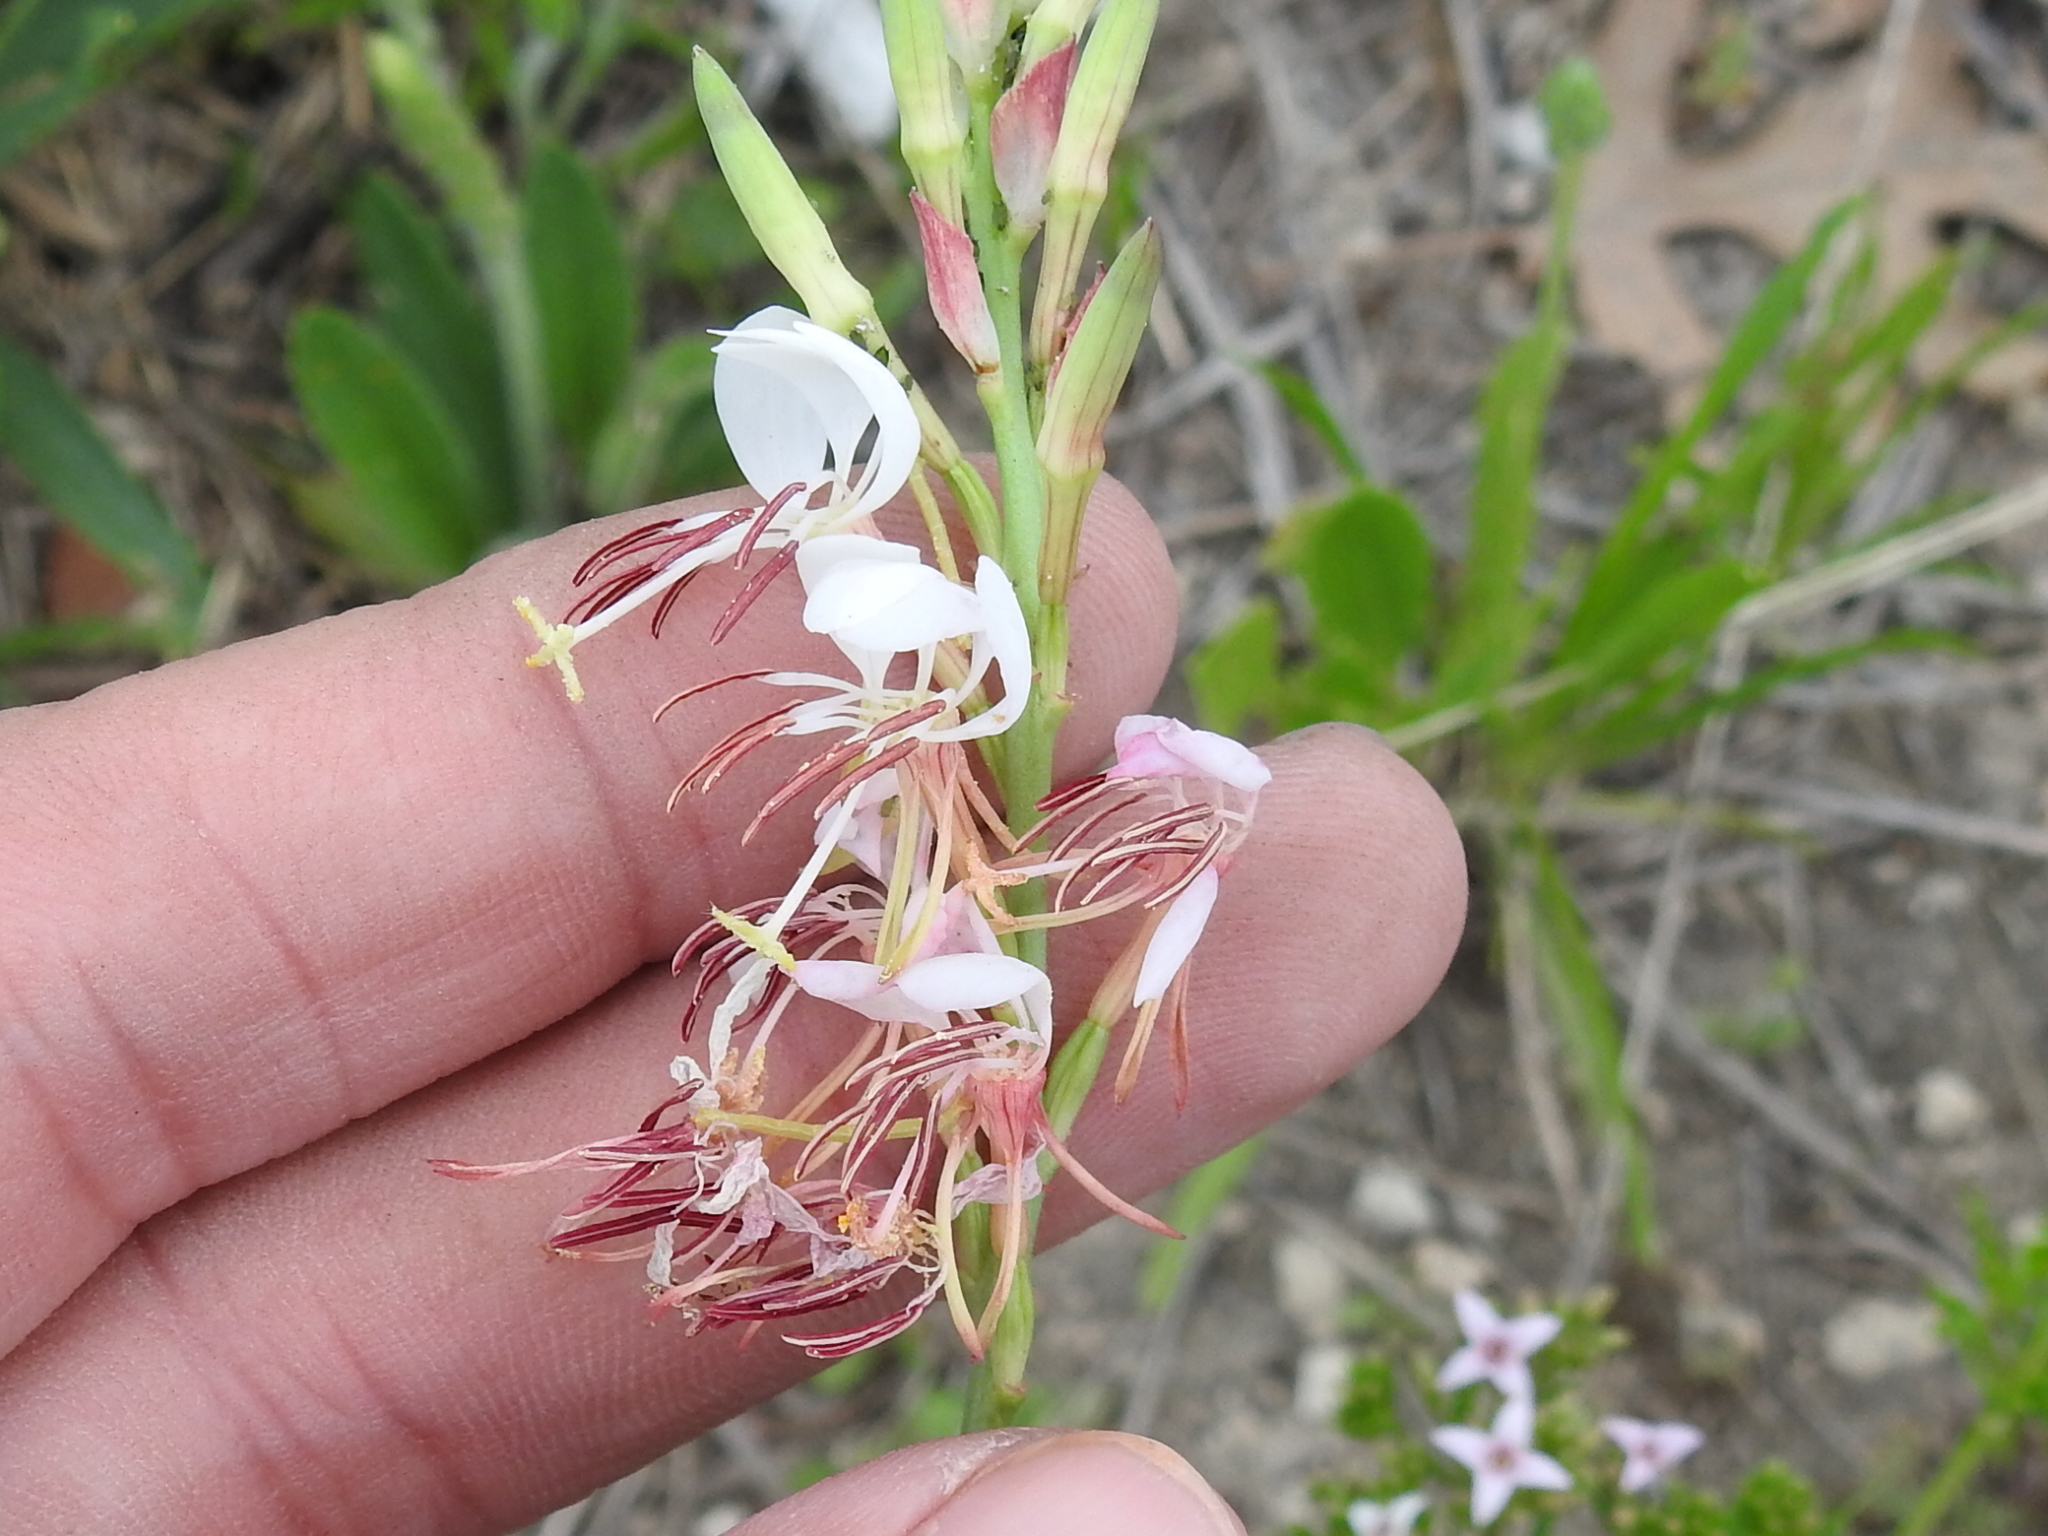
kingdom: Plantae
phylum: Tracheophyta
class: Magnoliopsida
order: Myrtales
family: Onagraceae
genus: Oenothera
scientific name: Oenothera suffulta
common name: Kisses
